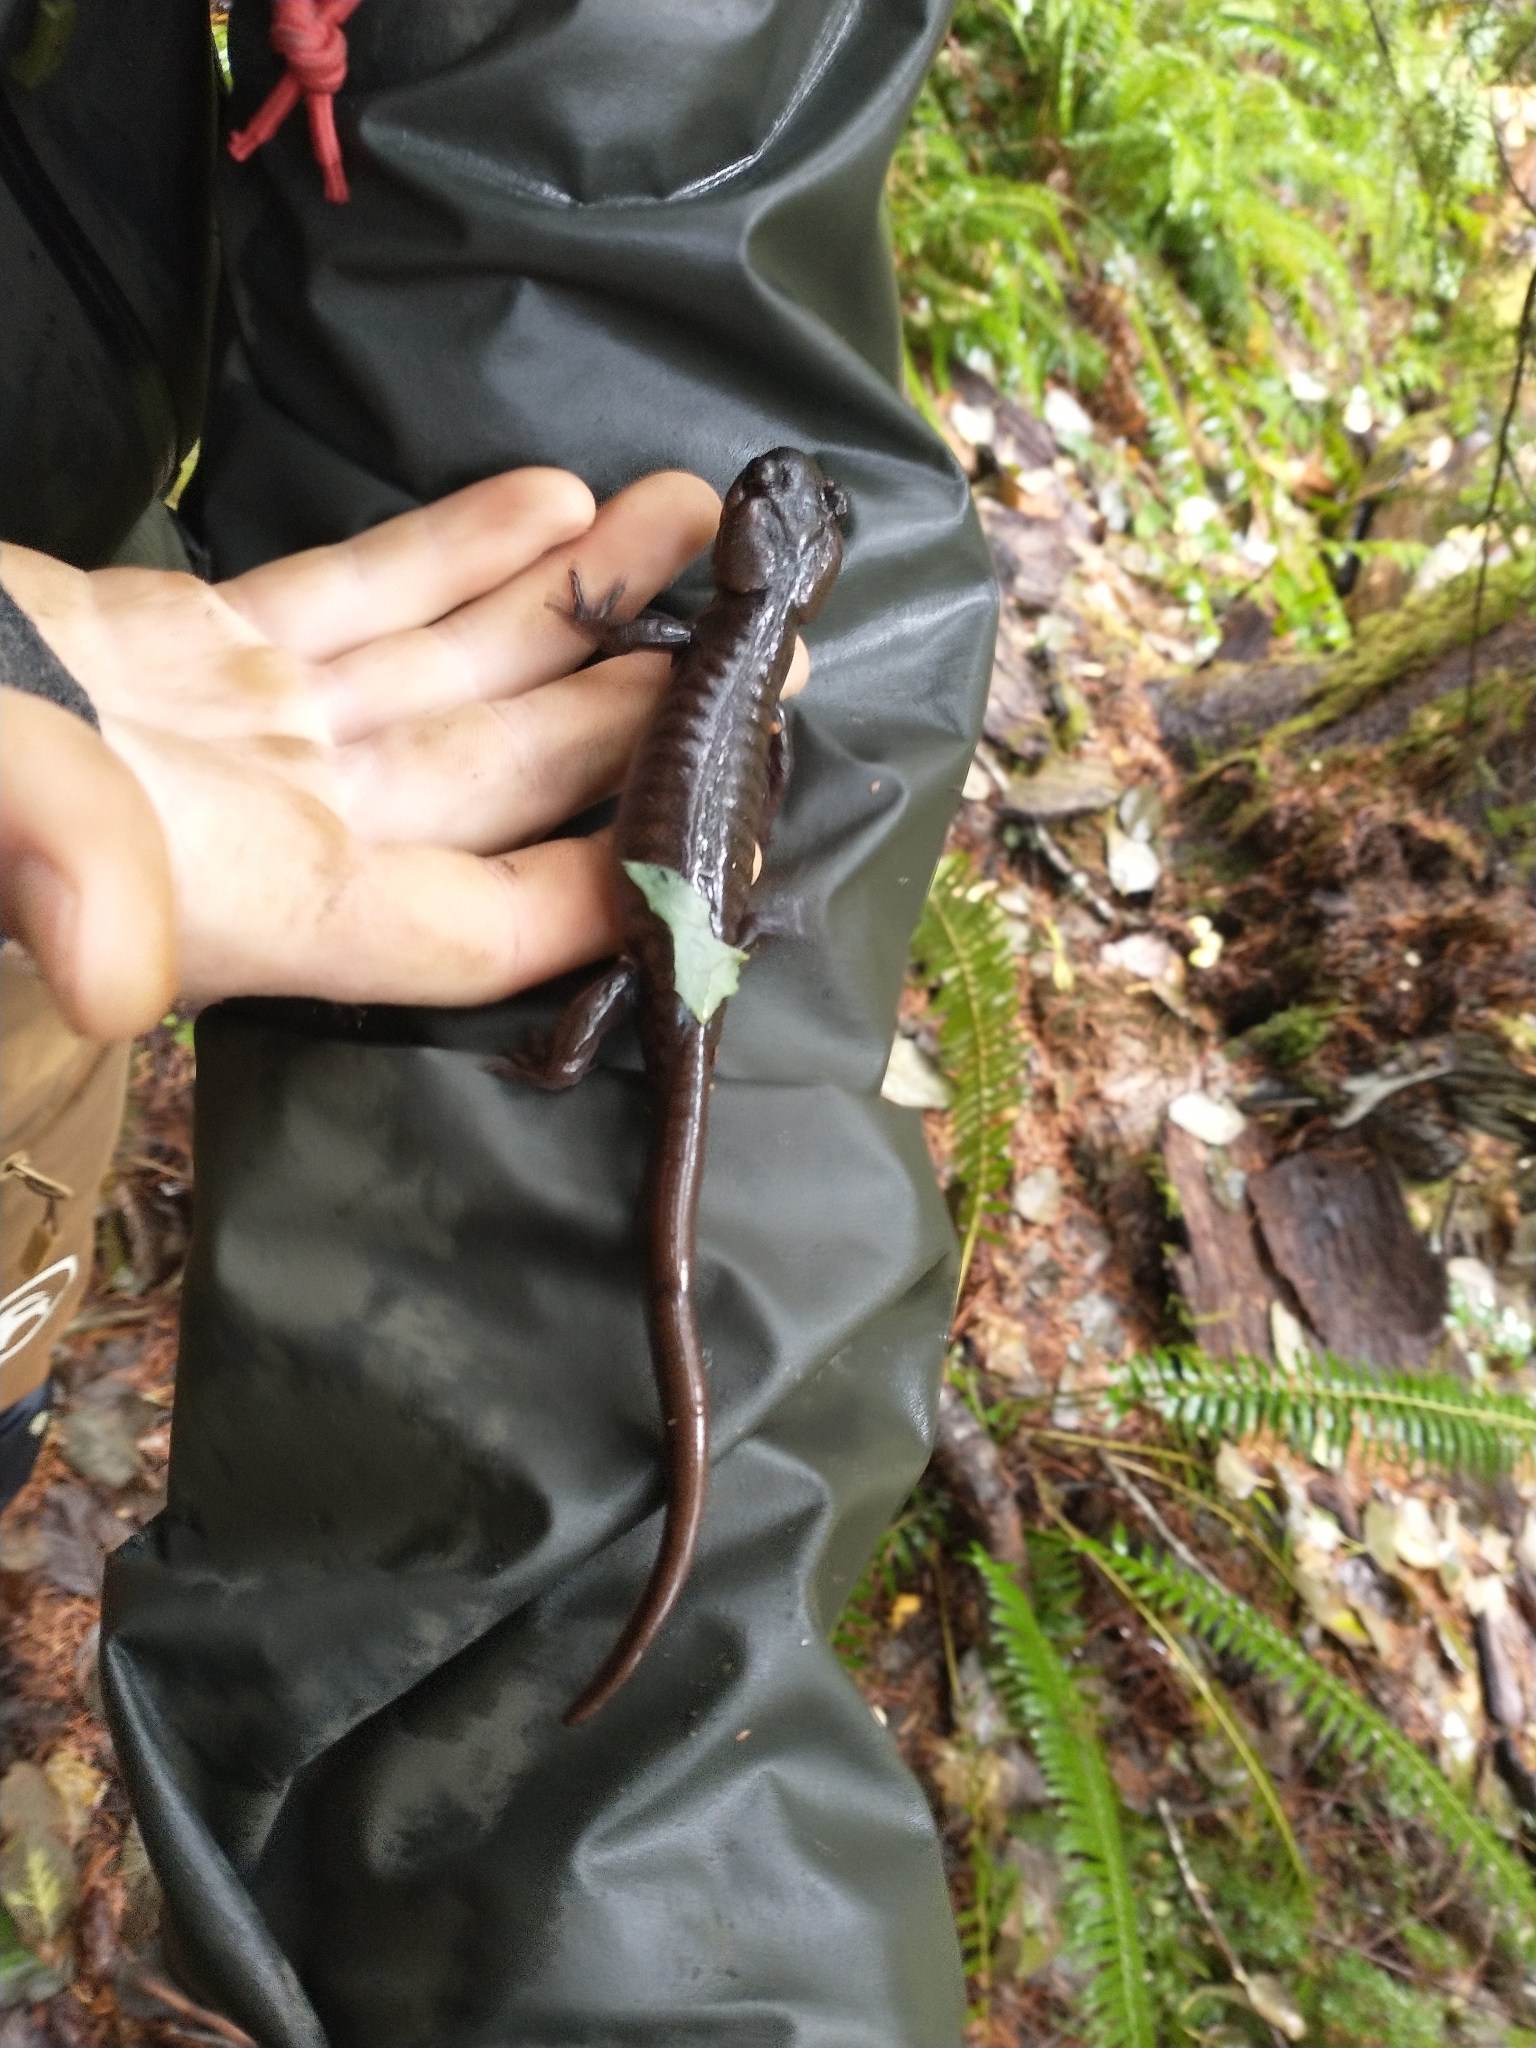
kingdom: Animalia
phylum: Chordata
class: Amphibia
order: Caudata
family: Ambystomatidae
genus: Ambystoma
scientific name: Ambystoma gracile
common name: Northwestern salamander
